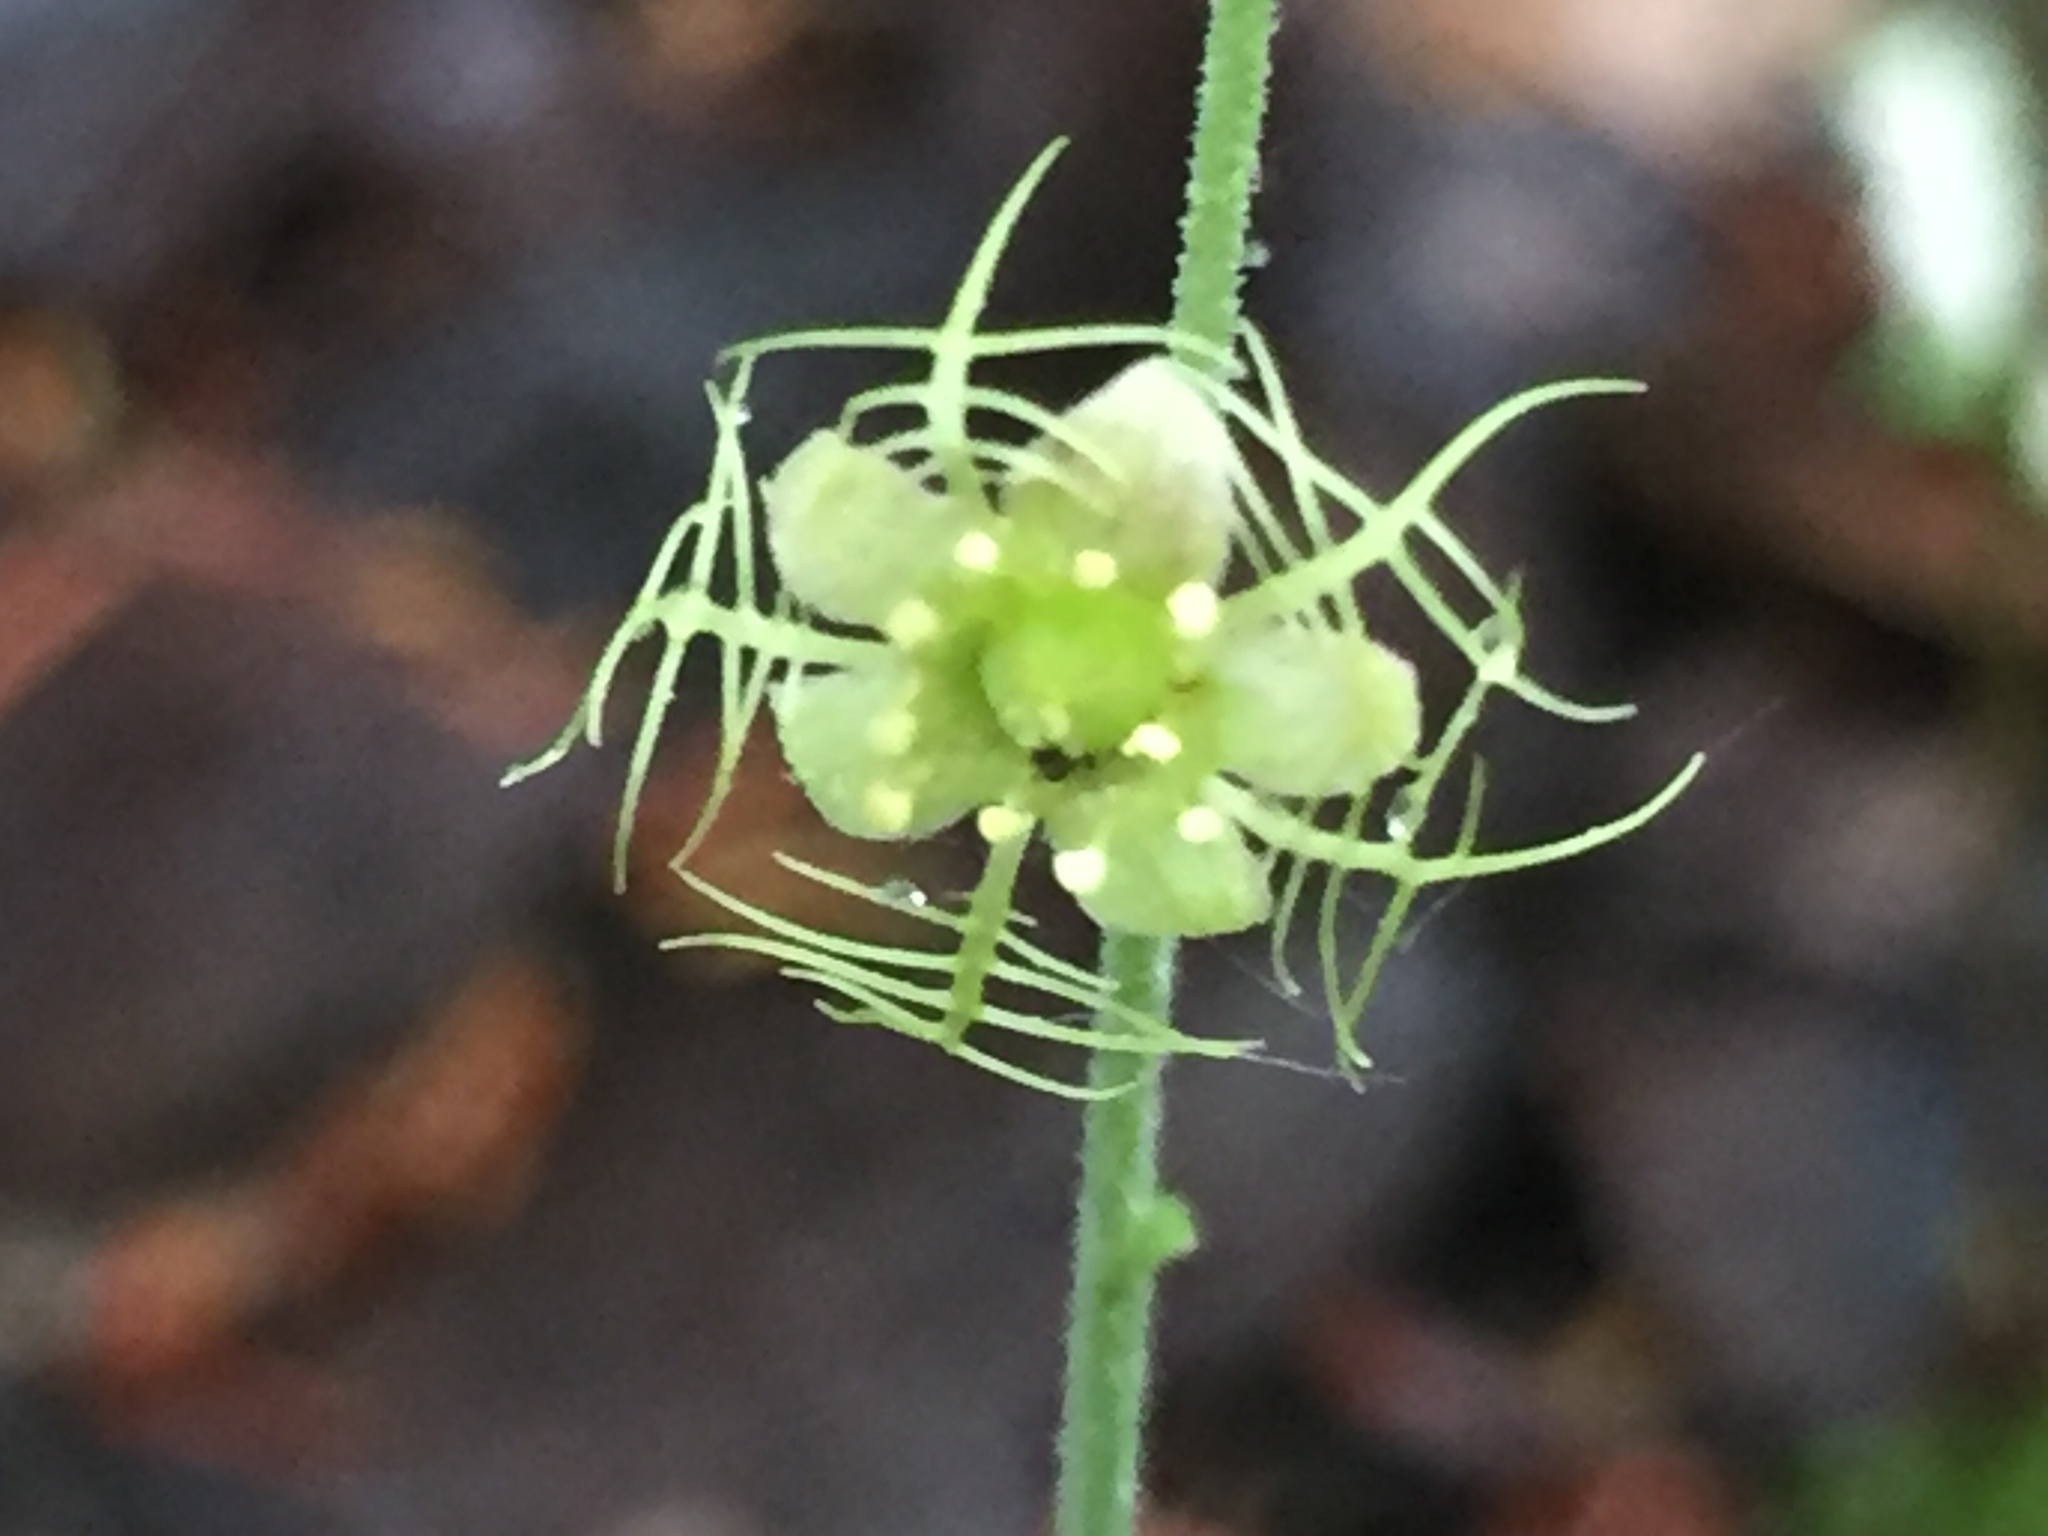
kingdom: Plantae
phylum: Tracheophyta
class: Magnoliopsida
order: Saxifragales
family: Saxifragaceae
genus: Mitella
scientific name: Mitella nuda
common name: Bare-stemmed bishop's-cap
